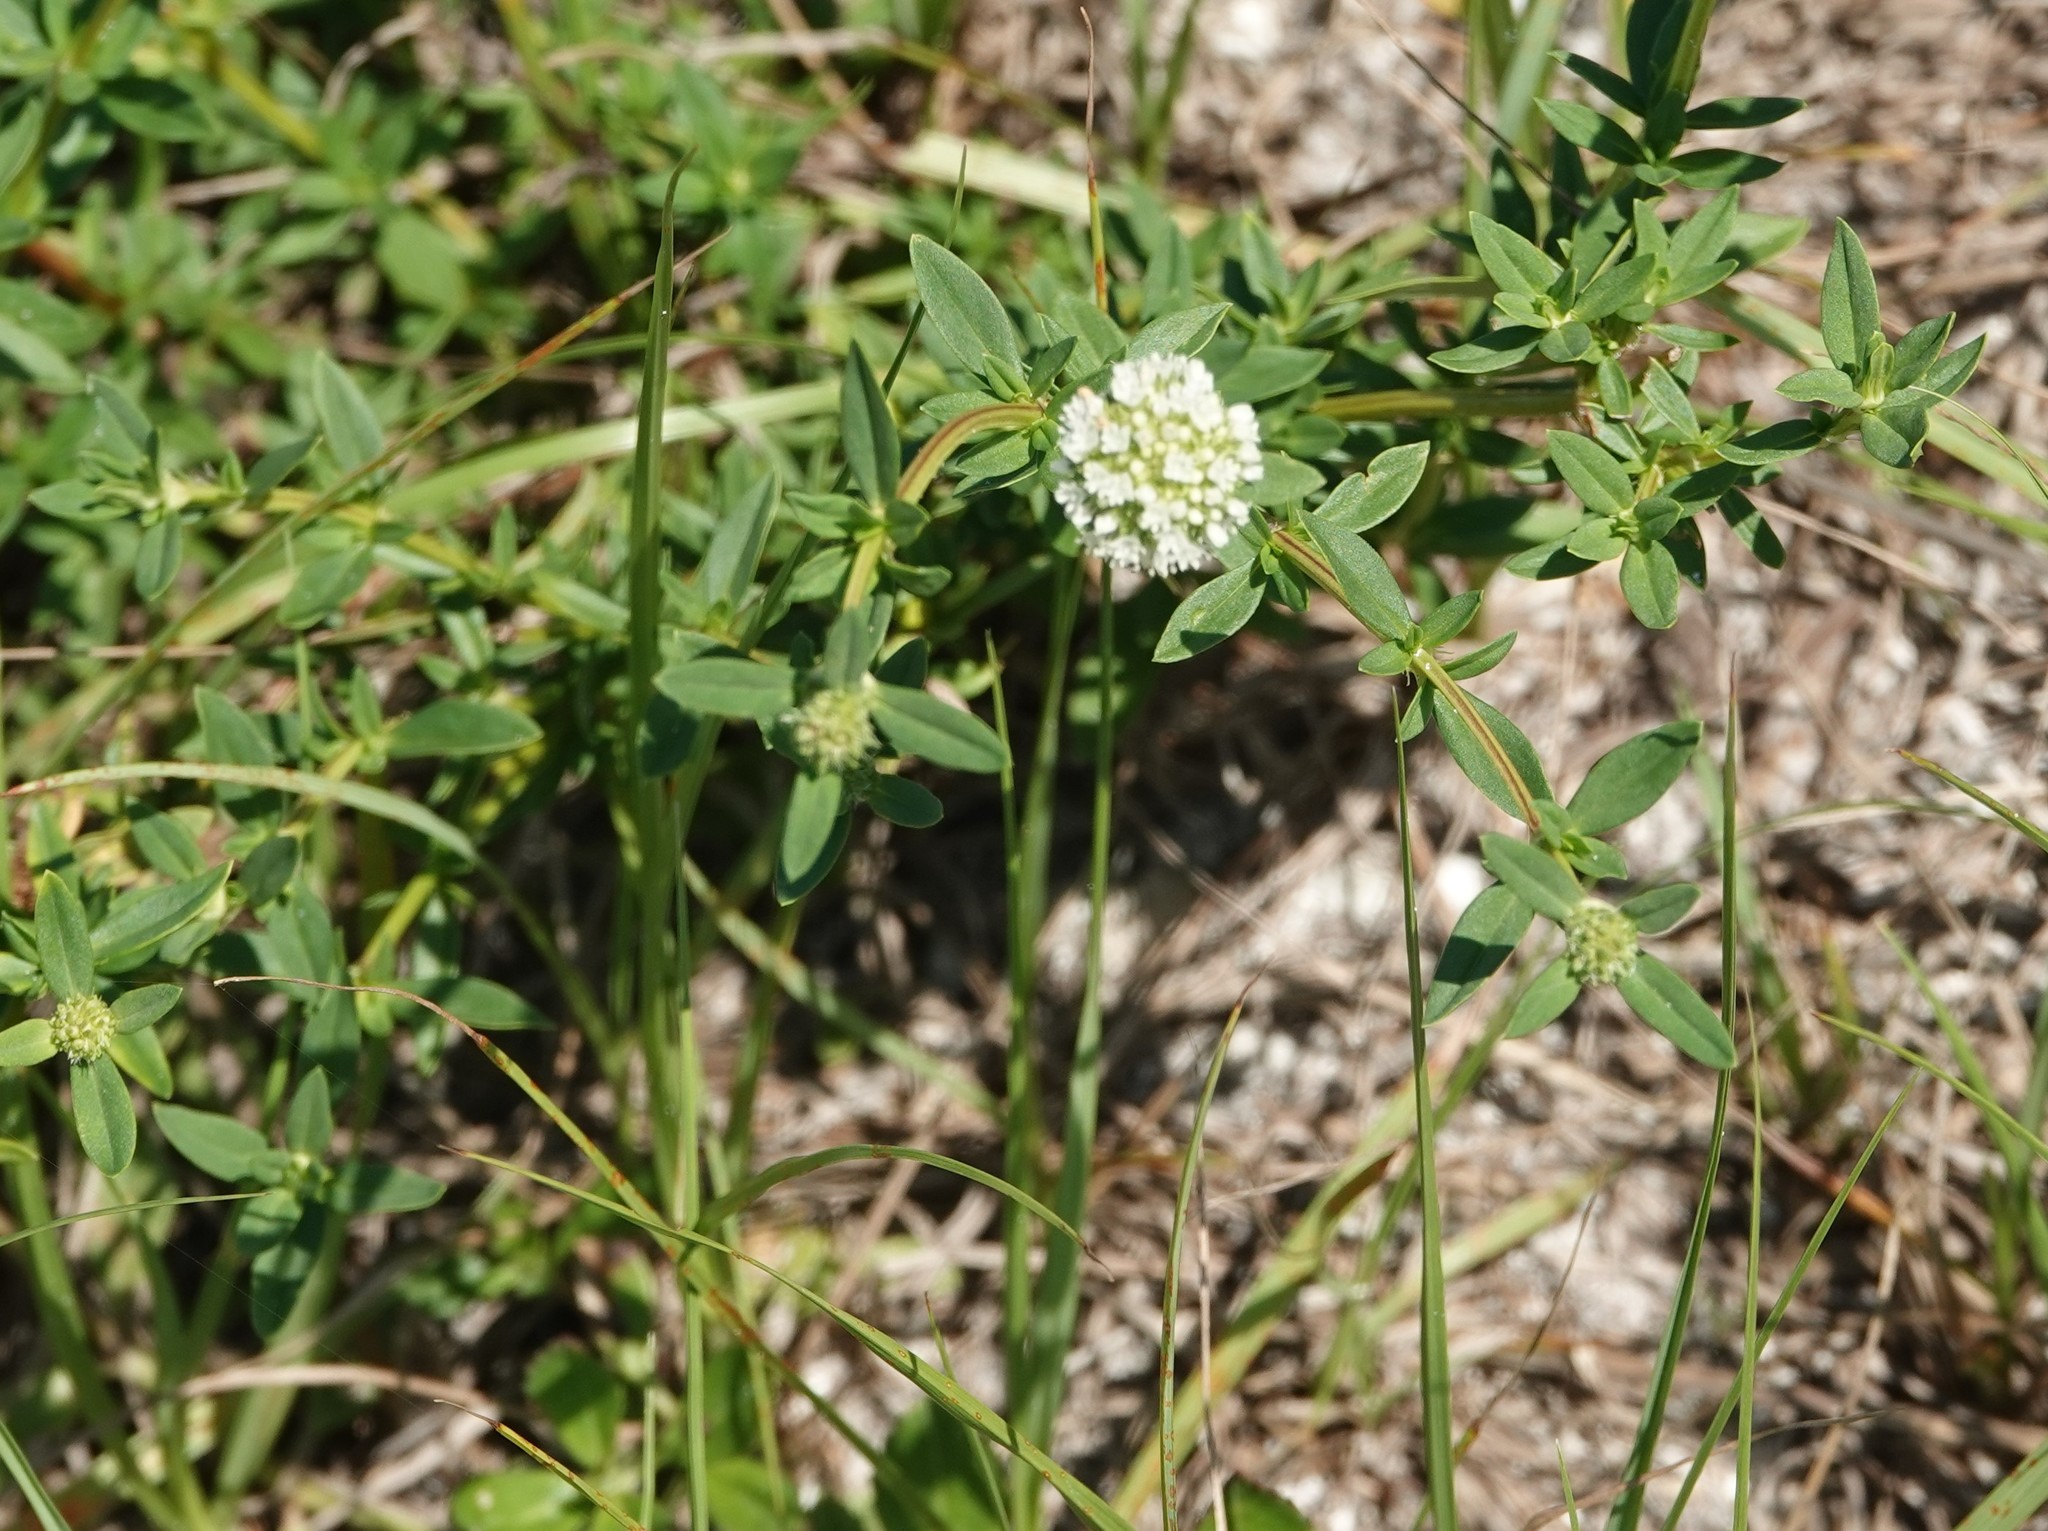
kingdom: Plantae
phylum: Tracheophyta
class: Magnoliopsida
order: Gentianales
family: Rubiaceae
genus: Spermacoce
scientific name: Spermacoce verticillata
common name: Shrubby false buttonweed
